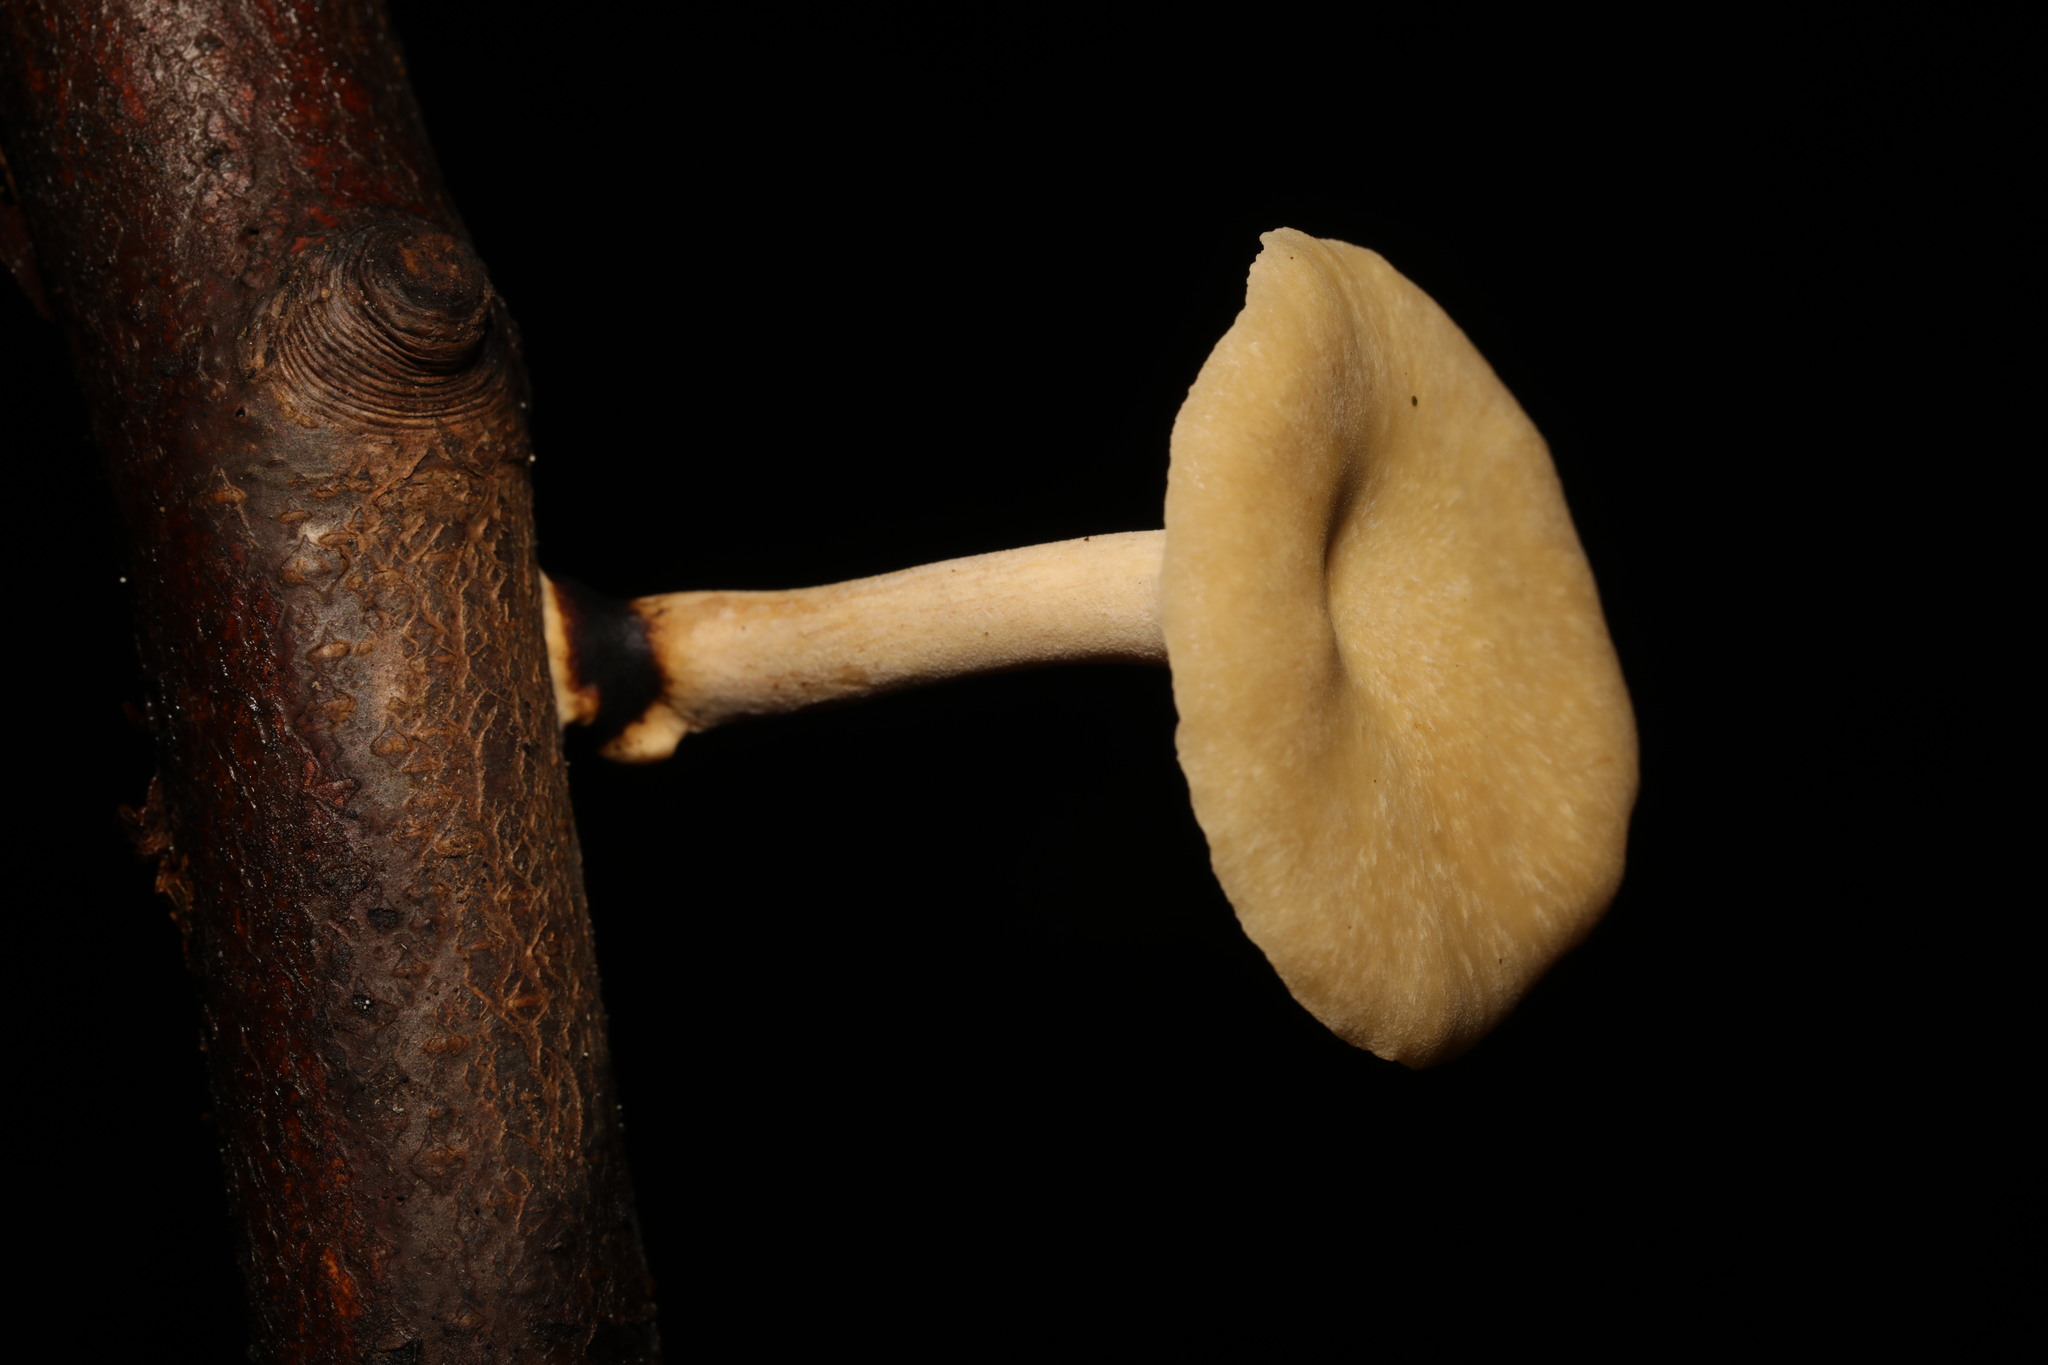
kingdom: Fungi
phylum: Basidiomycota
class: Agaricomycetes
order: Polyporales
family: Polyporaceae
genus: Cerioporus
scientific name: Cerioporus leptocephalus
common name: Blackfoot polypore
